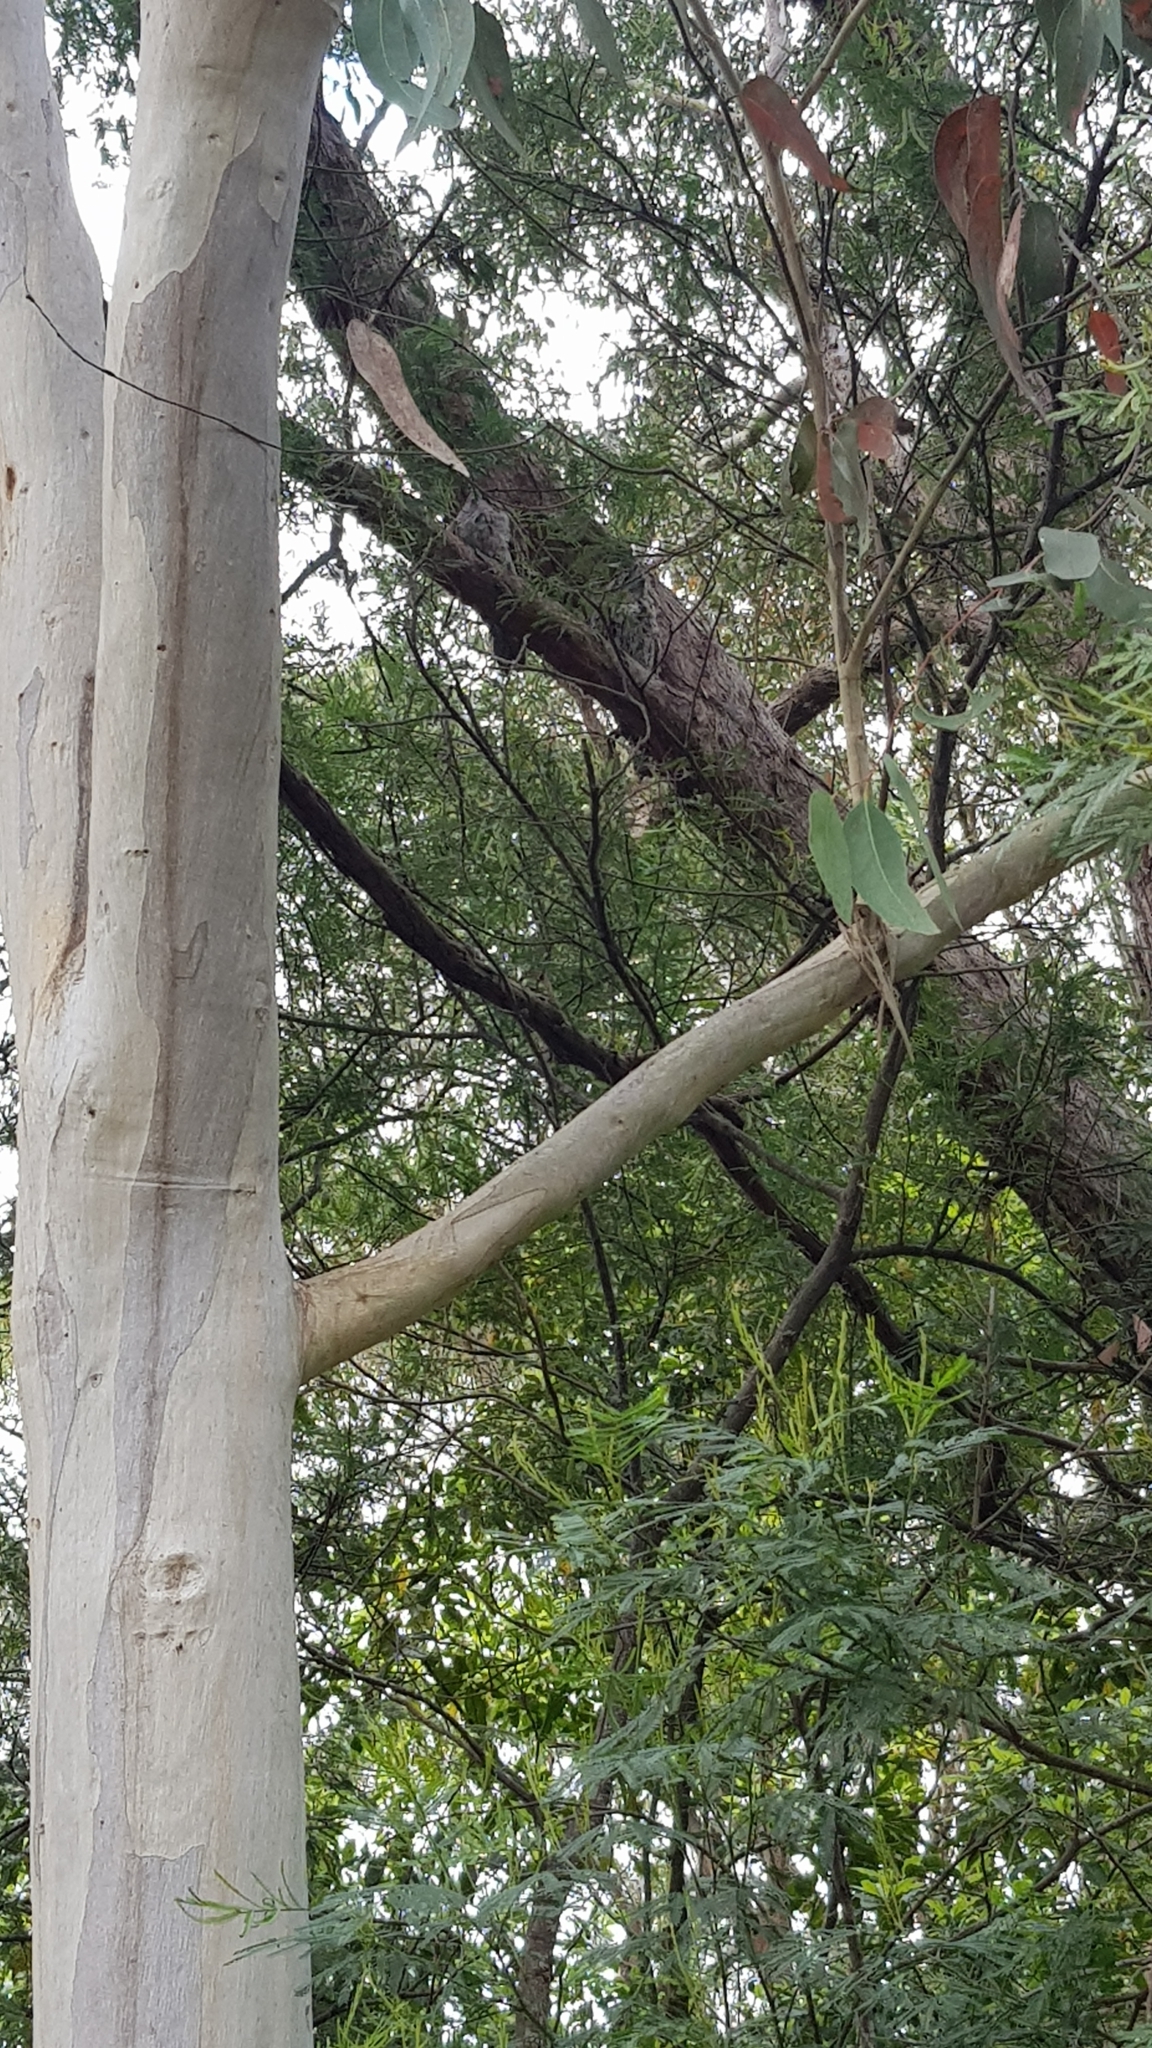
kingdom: Animalia
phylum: Chordata
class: Aves
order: Caprimulgiformes
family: Podargidae
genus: Podargus
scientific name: Podargus strigoides
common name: Tawny frogmouth
